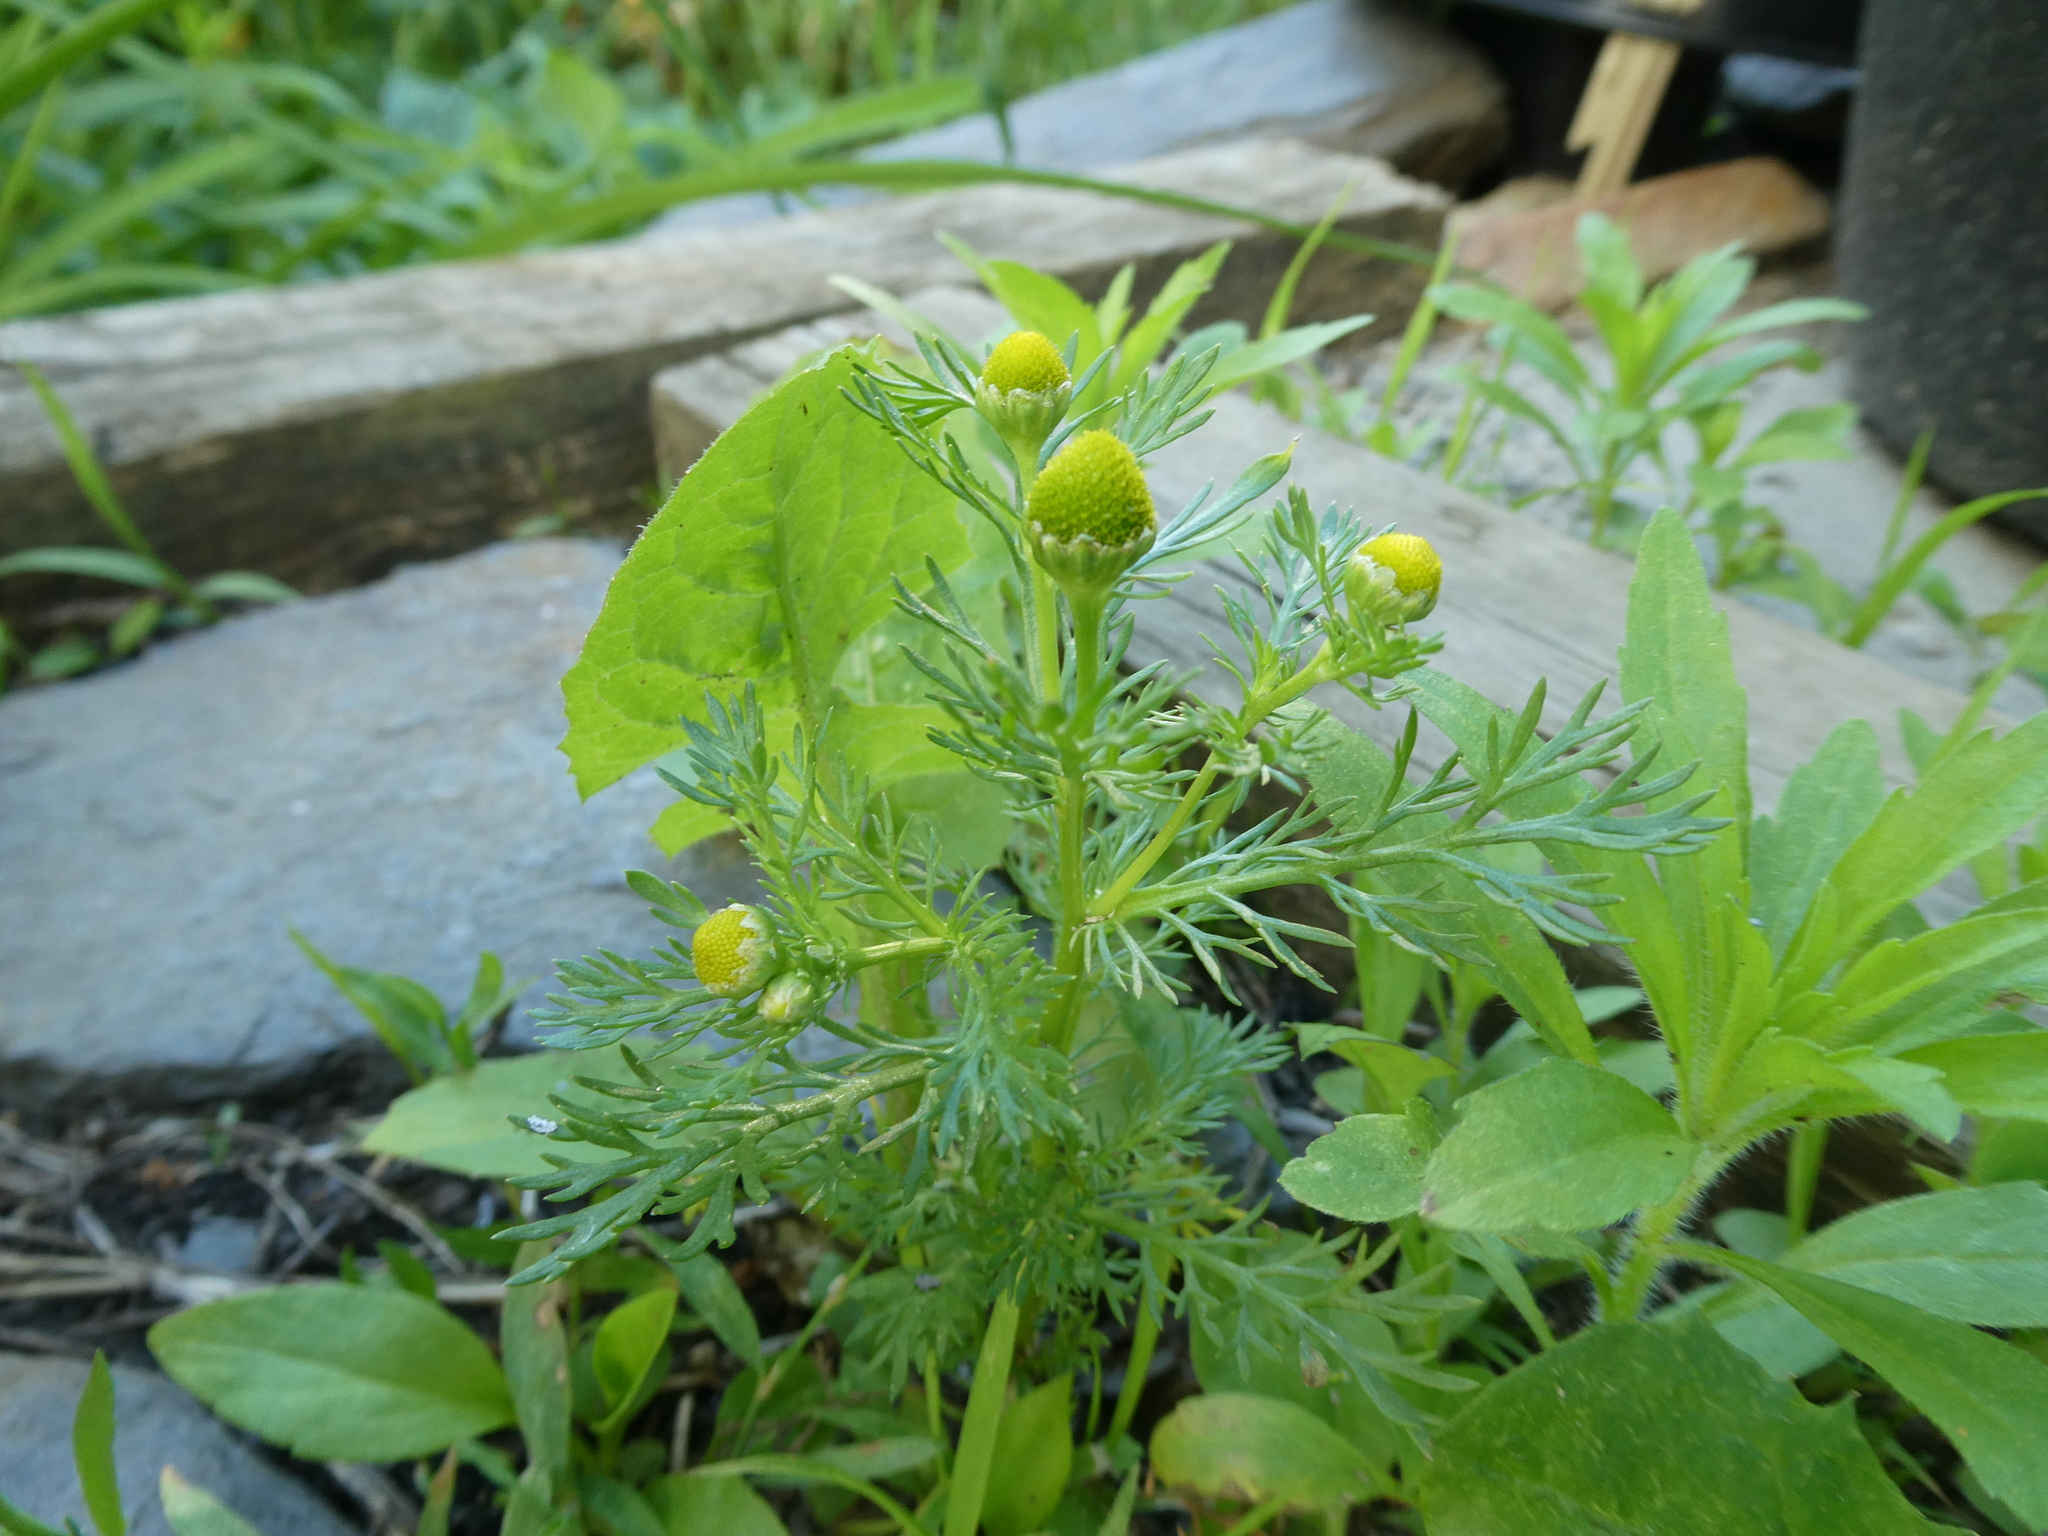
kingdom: Plantae
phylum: Tracheophyta
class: Magnoliopsida
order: Asterales
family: Asteraceae
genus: Matricaria
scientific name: Matricaria discoidea
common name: Disc mayweed
